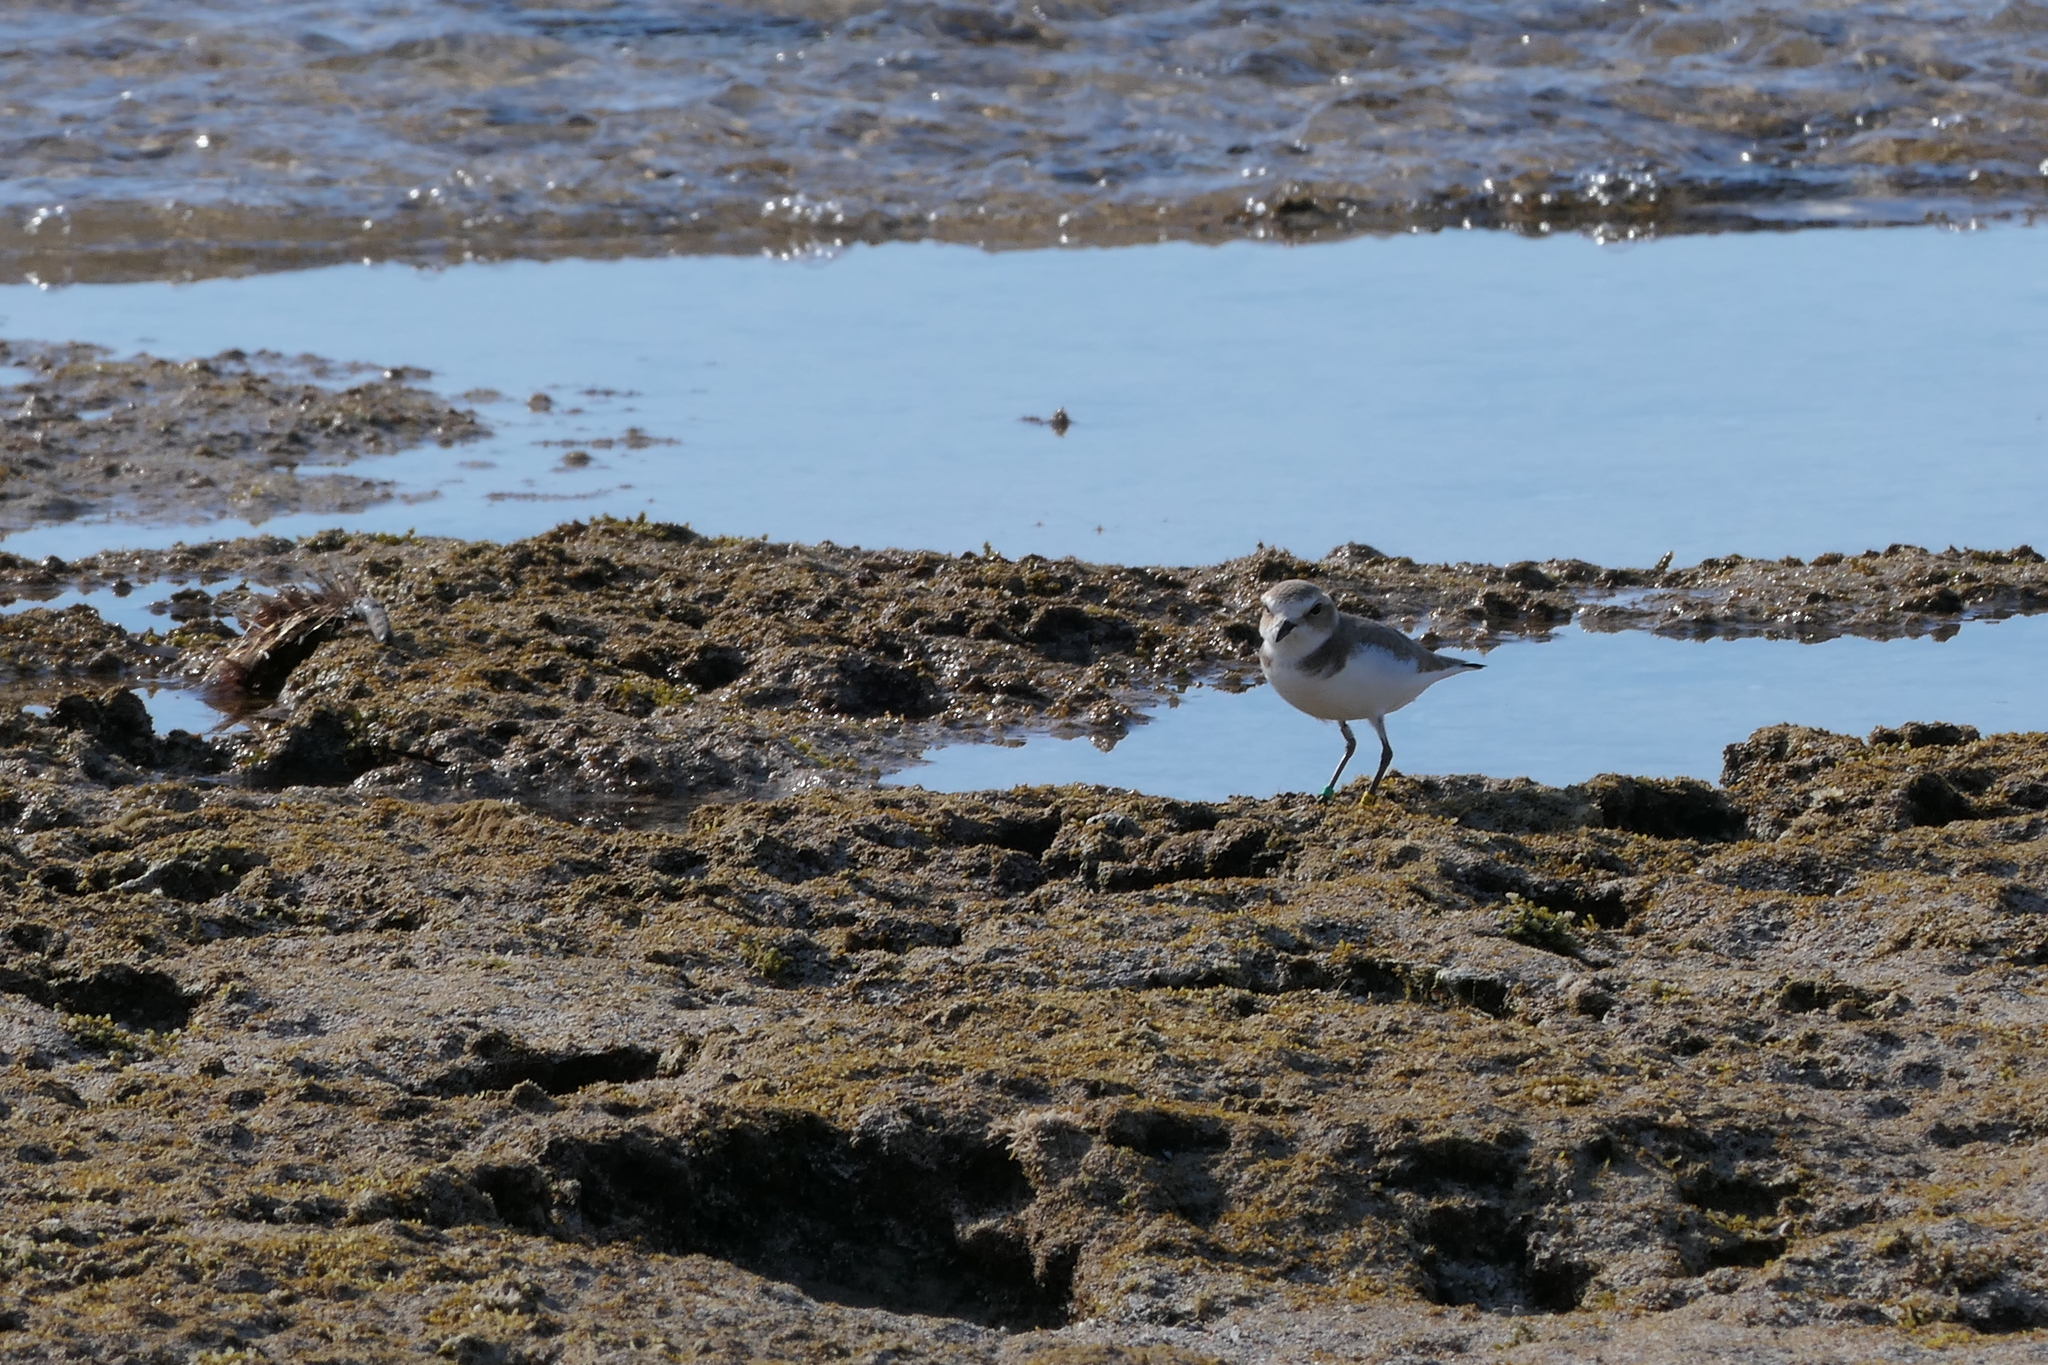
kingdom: Animalia
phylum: Chordata
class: Aves
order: Charadriiformes
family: Charadriidae
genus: Charadrius
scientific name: Charadrius alexandrinus
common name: Kentish plover
